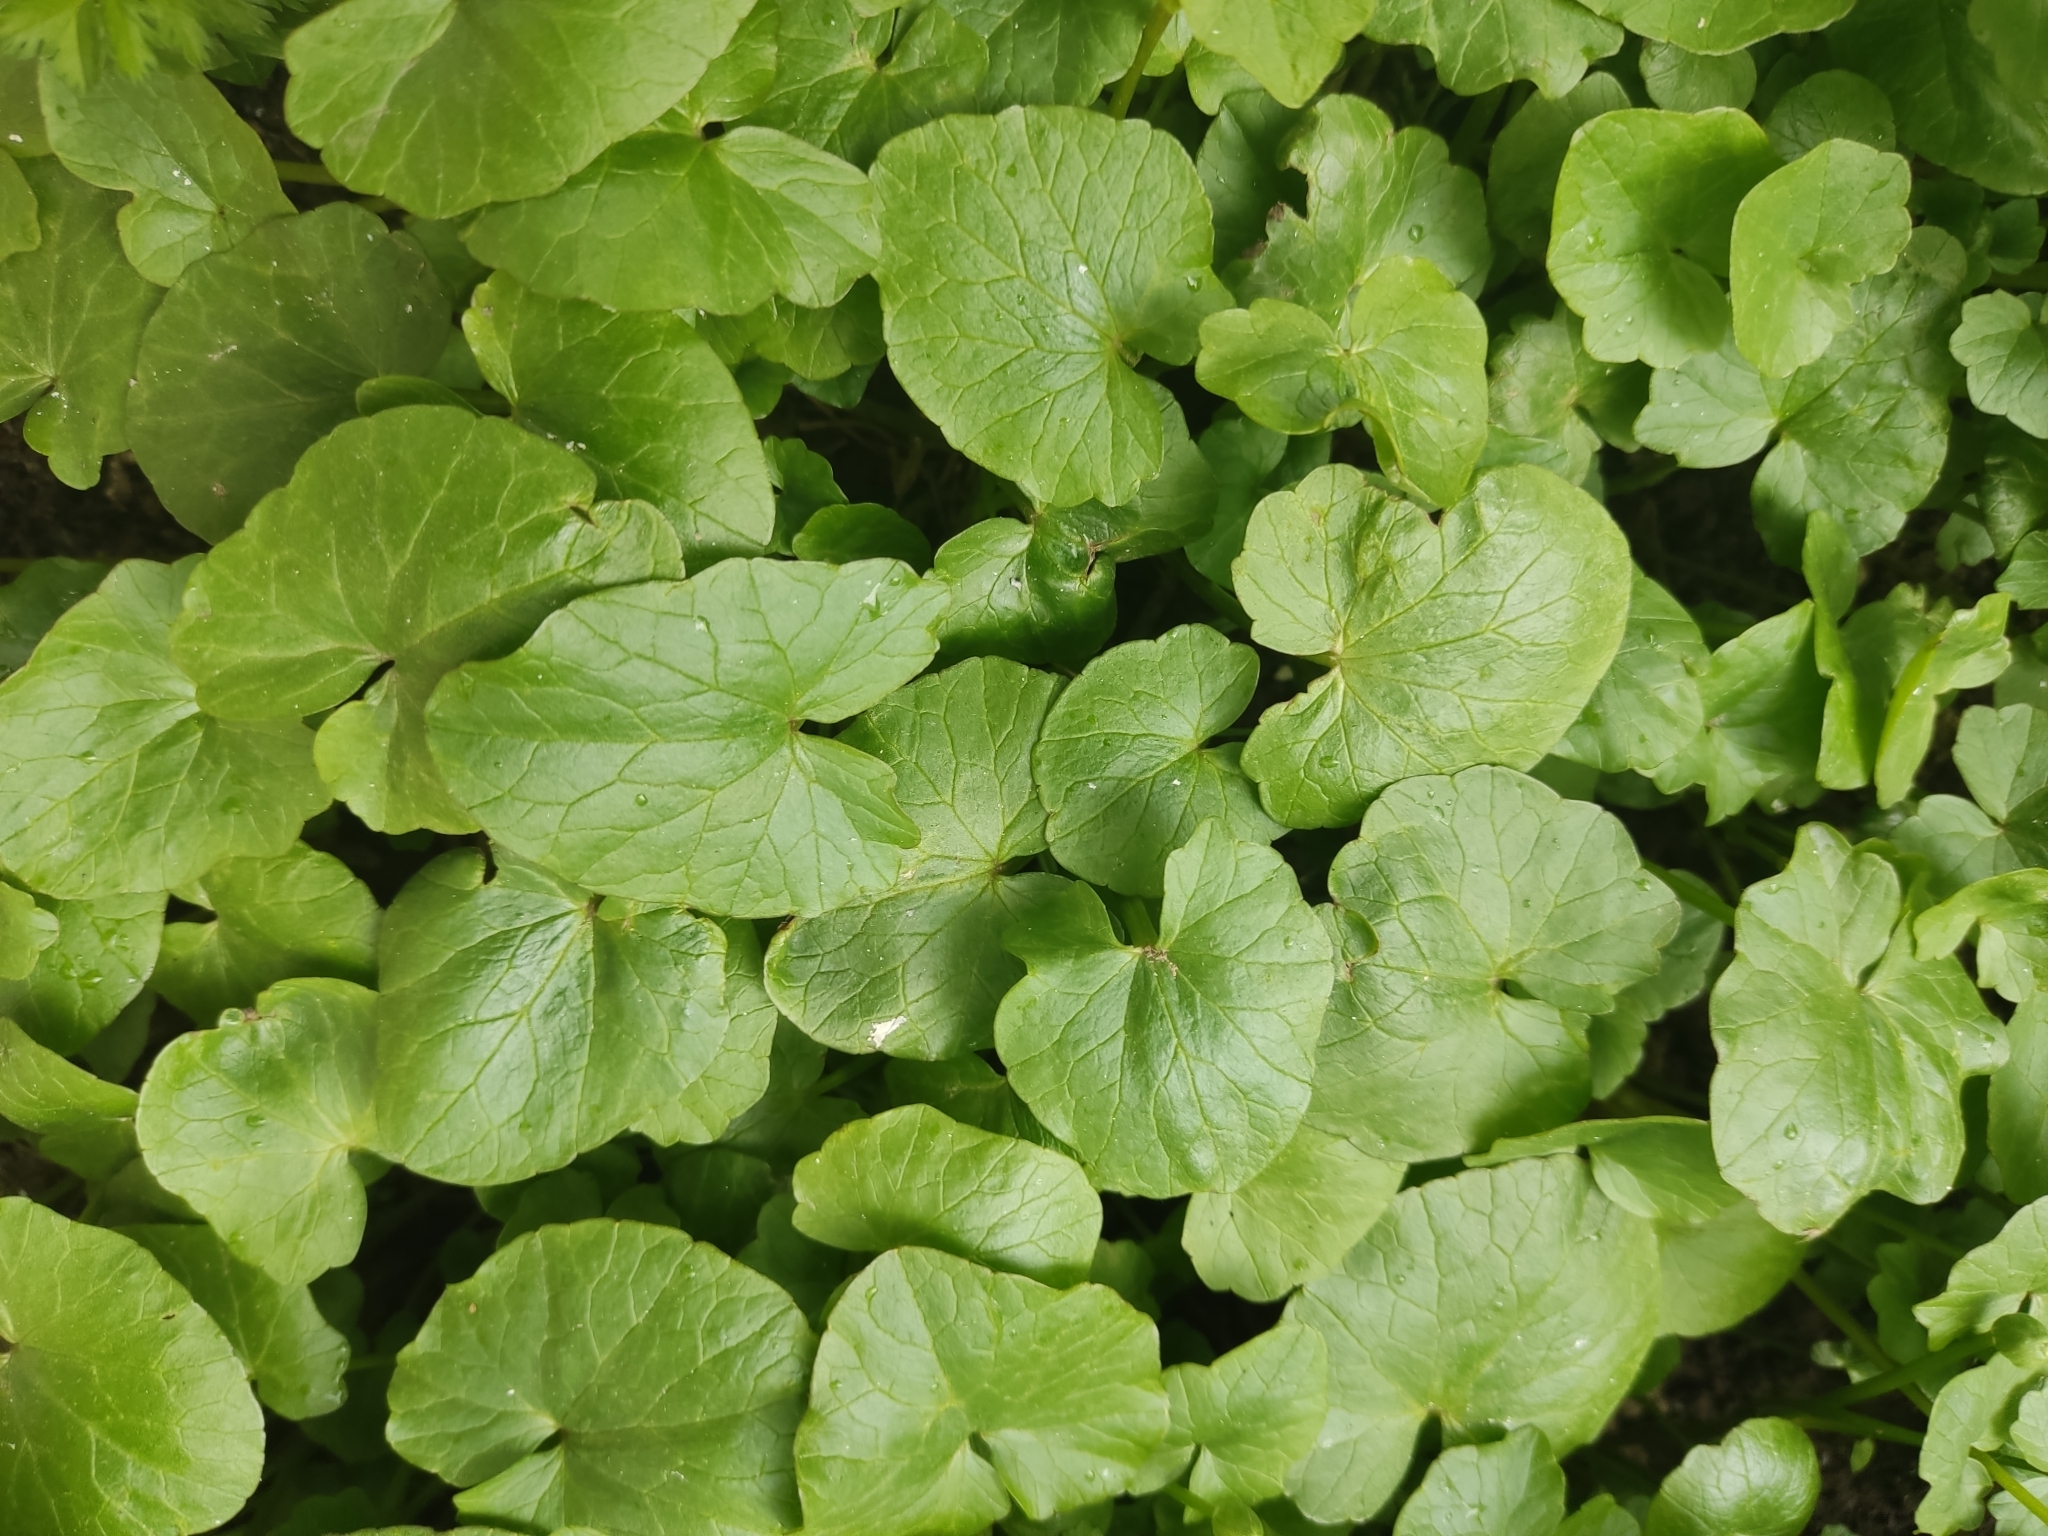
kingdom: Plantae
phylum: Tracheophyta
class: Magnoliopsida
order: Ranunculales
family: Ranunculaceae
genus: Ficaria
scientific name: Ficaria verna
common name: Lesser celandine
